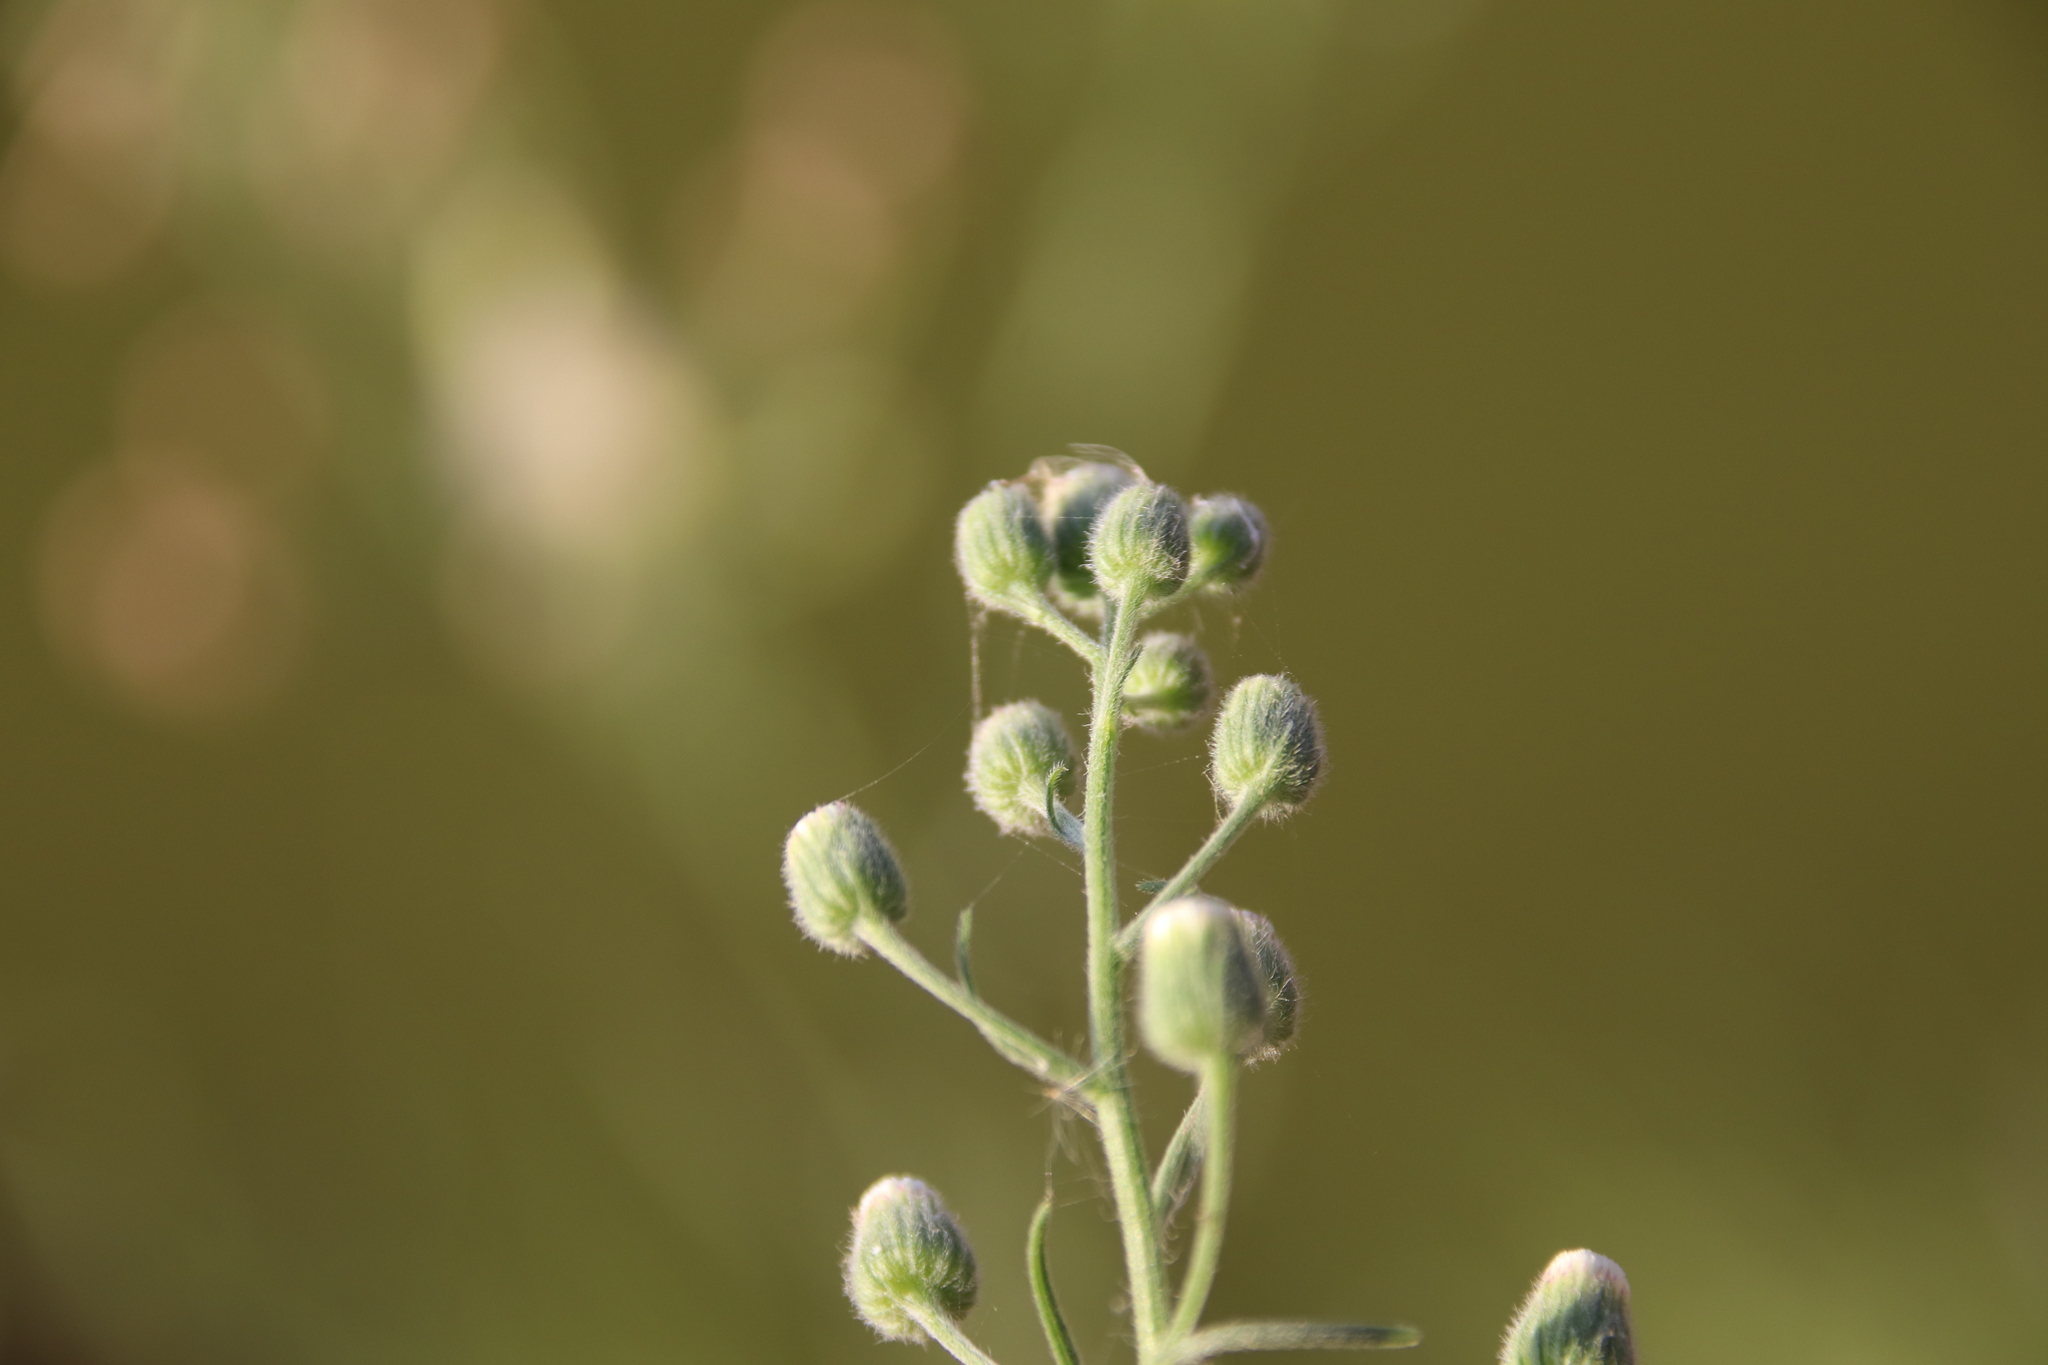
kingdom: Plantae
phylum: Tracheophyta
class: Magnoliopsida
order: Asterales
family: Asteraceae
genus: Erigeron
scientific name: Erigeron bonariensis
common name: Argentine fleabane
